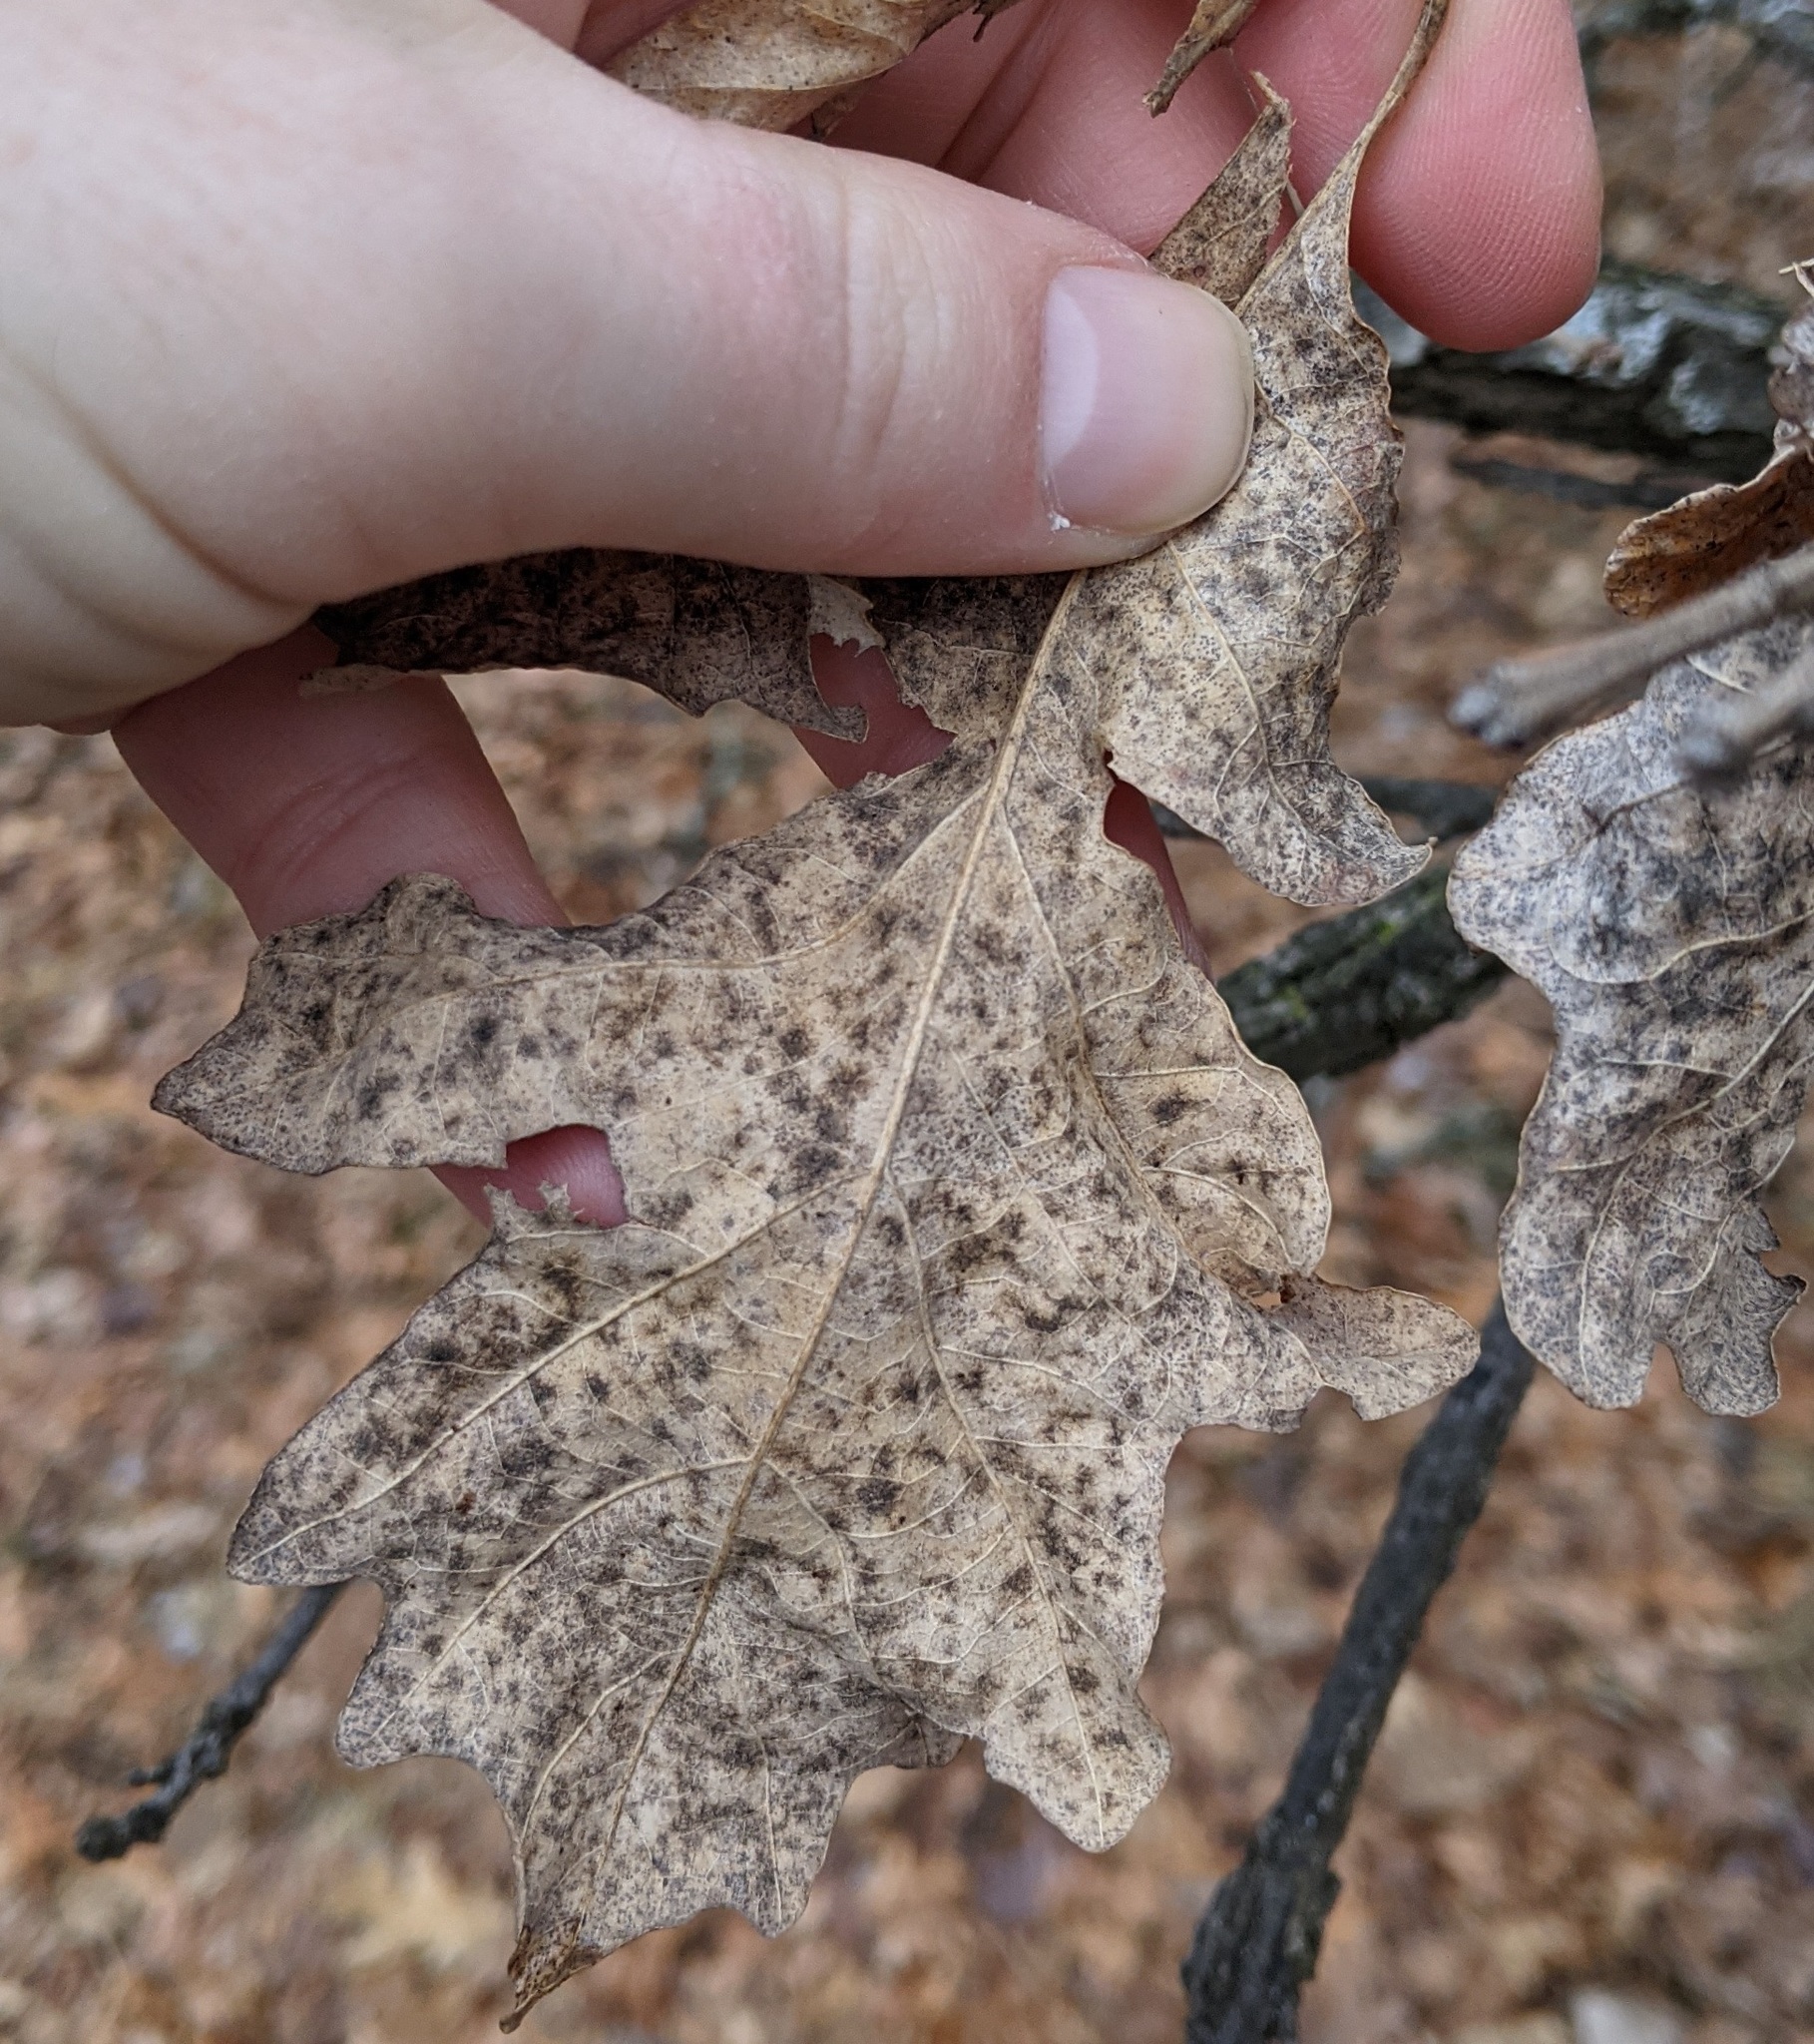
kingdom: Plantae
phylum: Tracheophyta
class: Magnoliopsida
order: Fagales
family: Fagaceae
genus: Quercus
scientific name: Quercus macrocarpa
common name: Bur oak
